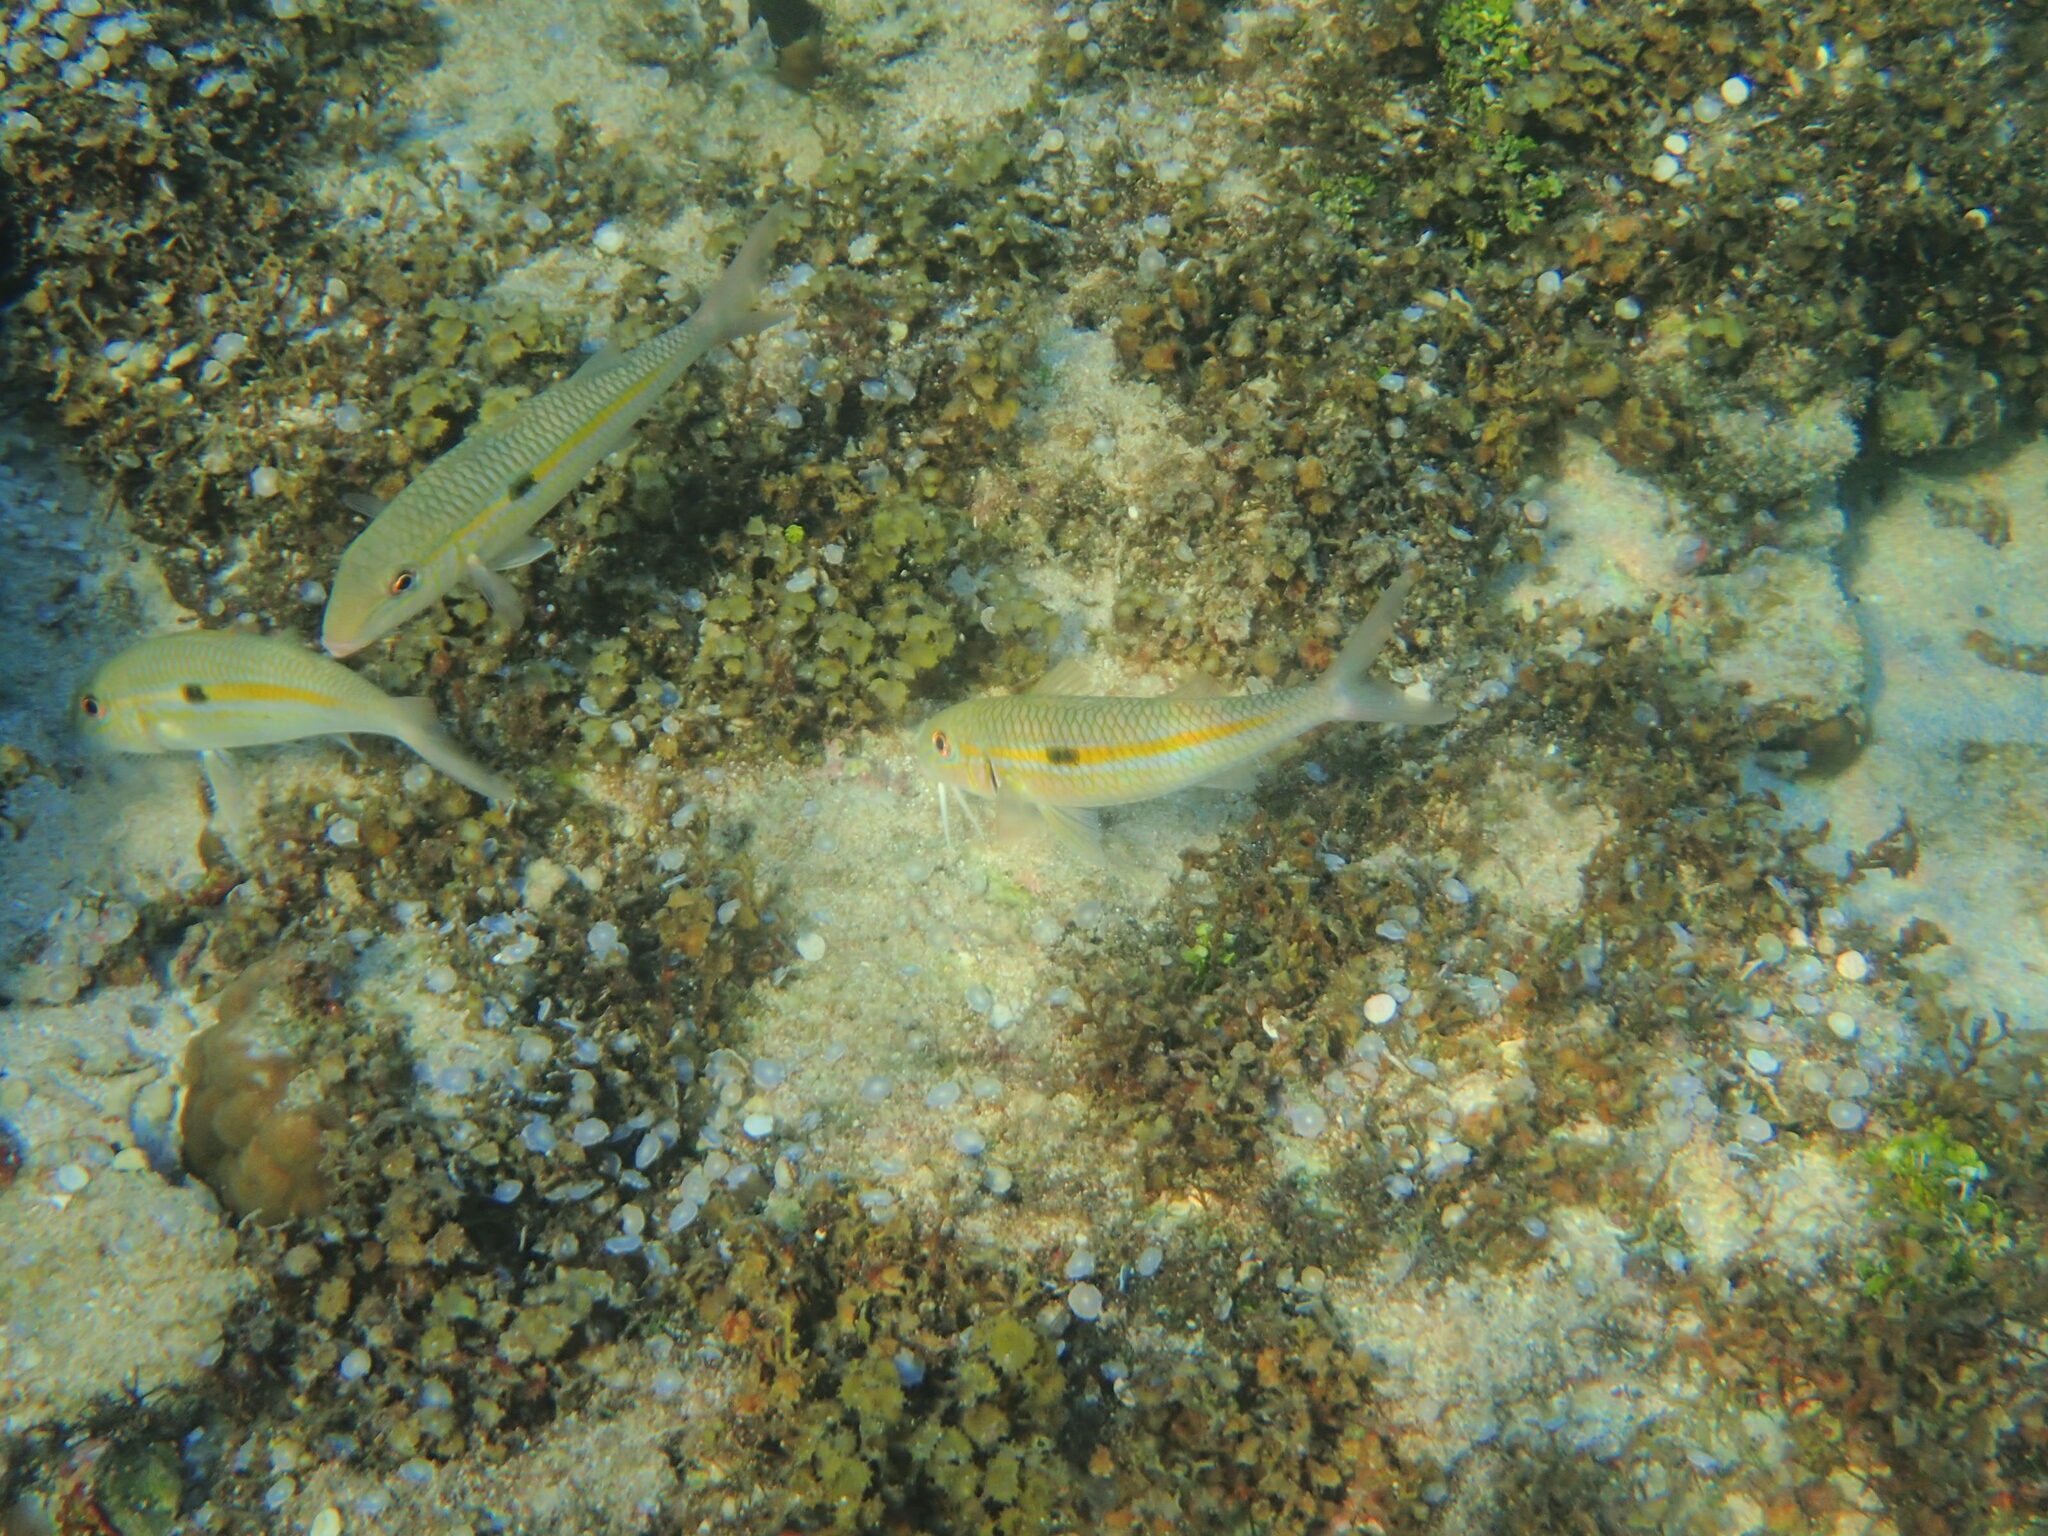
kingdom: Animalia
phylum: Chordata
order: Perciformes
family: Mullidae
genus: Mulloidichthys
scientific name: Mulloidichthys flavolineatus
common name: Yellowstripe goatfish
